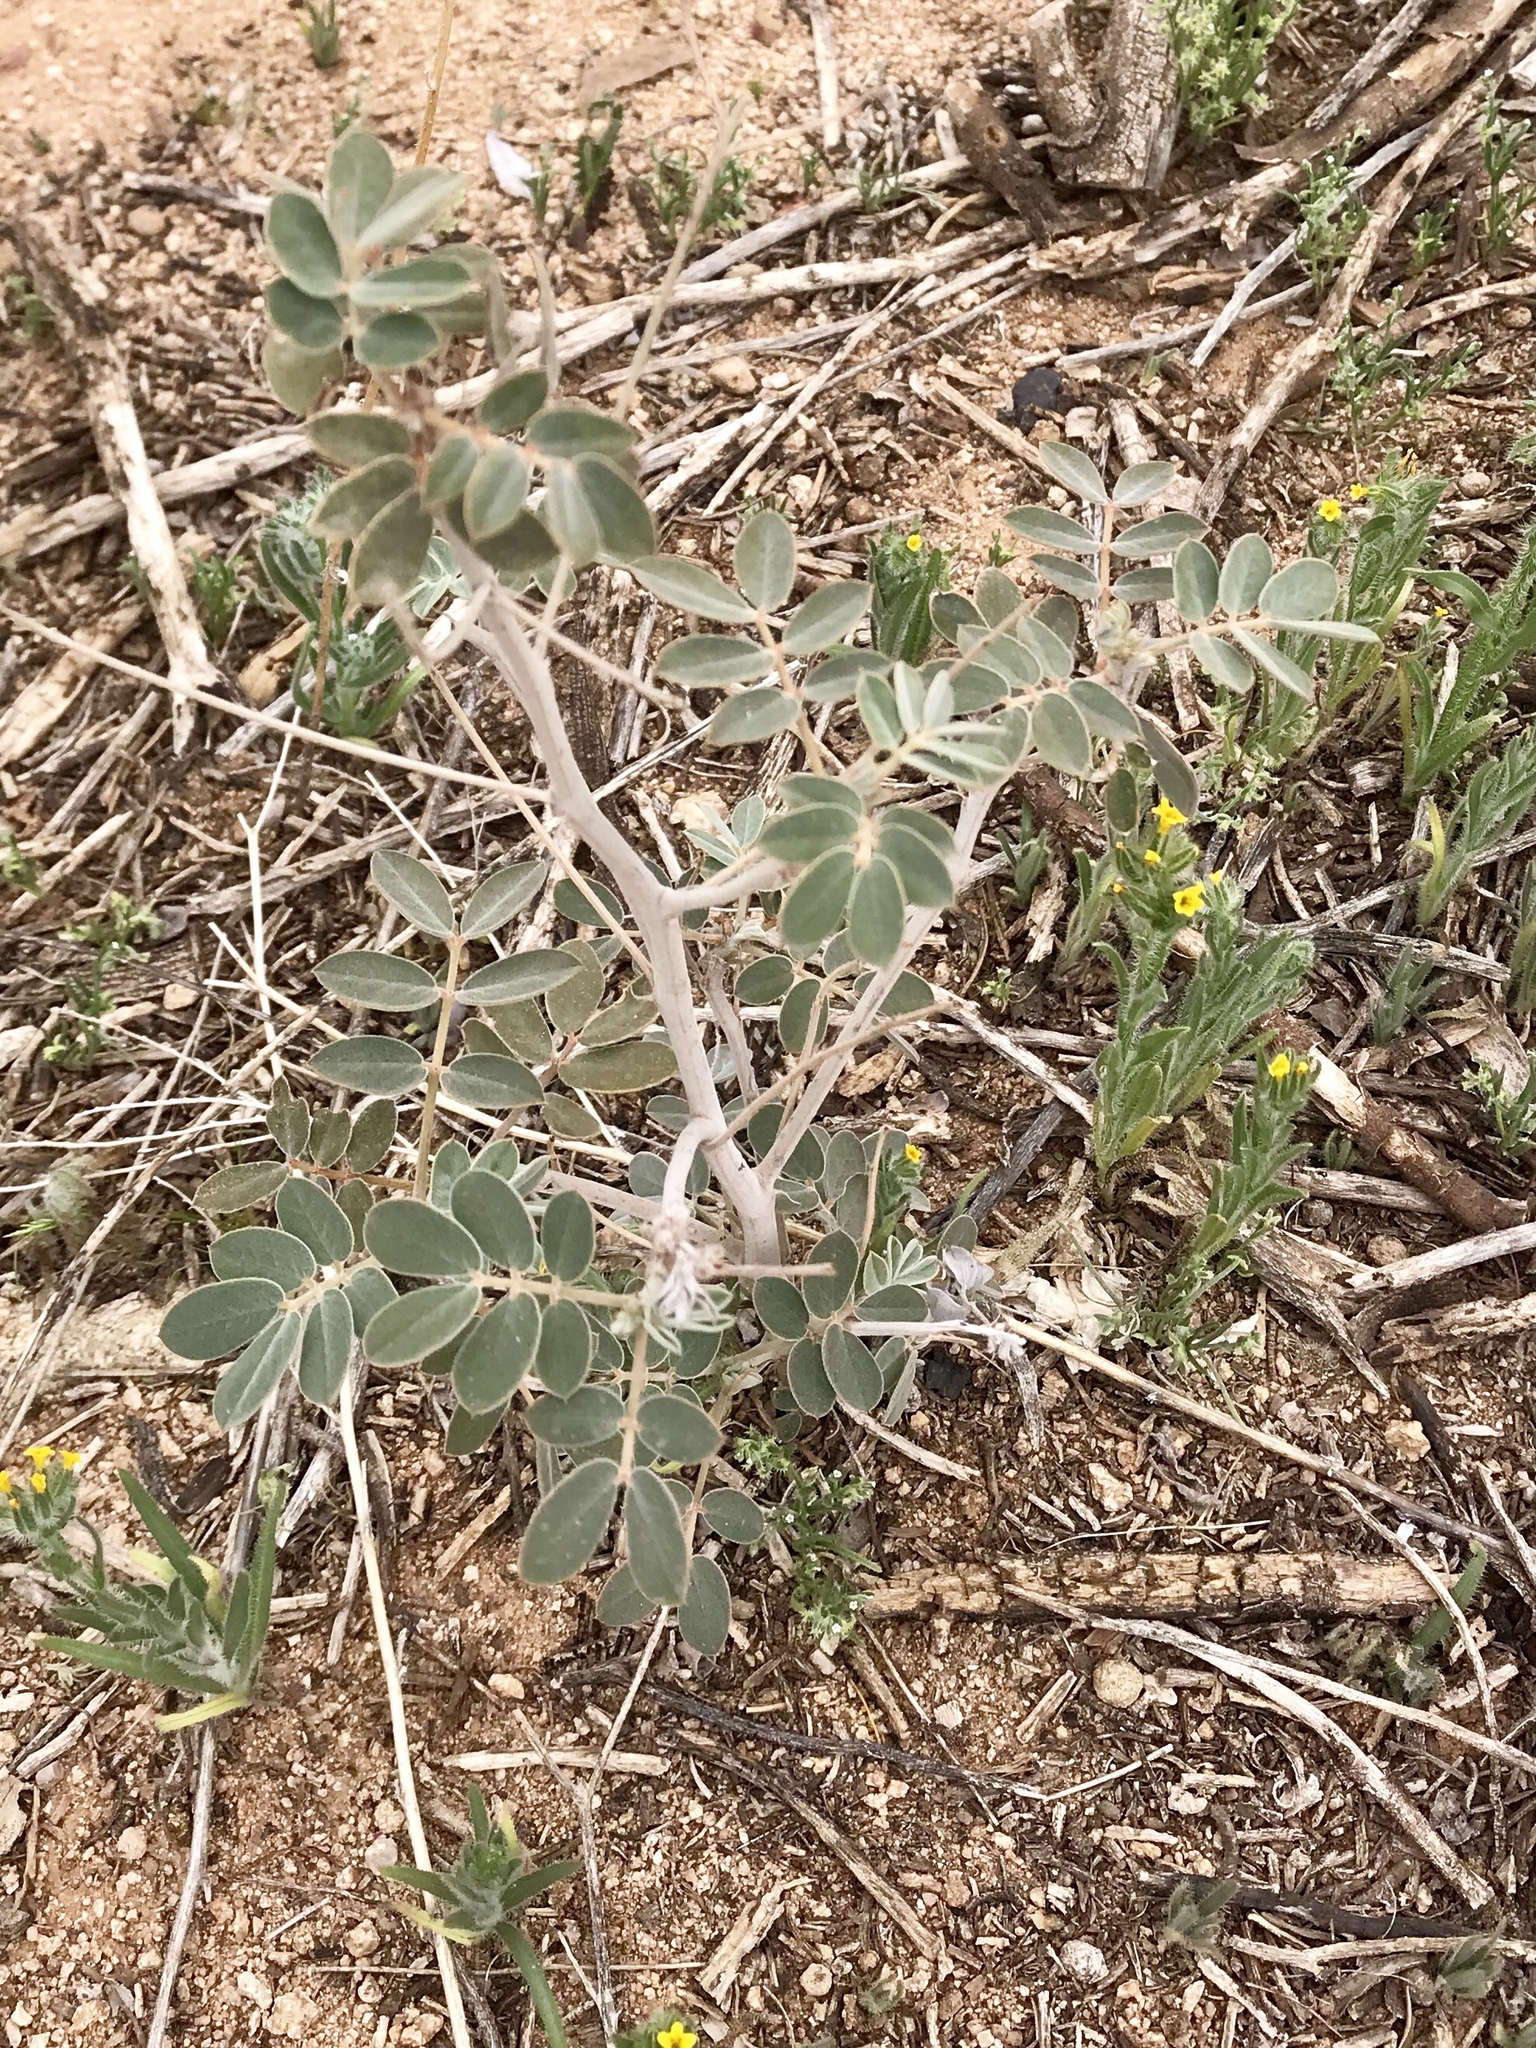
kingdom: Plantae
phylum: Tracheophyta
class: Magnoliopsida
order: Fabales
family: Fabaceae
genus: Senna
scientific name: Senna covesii
